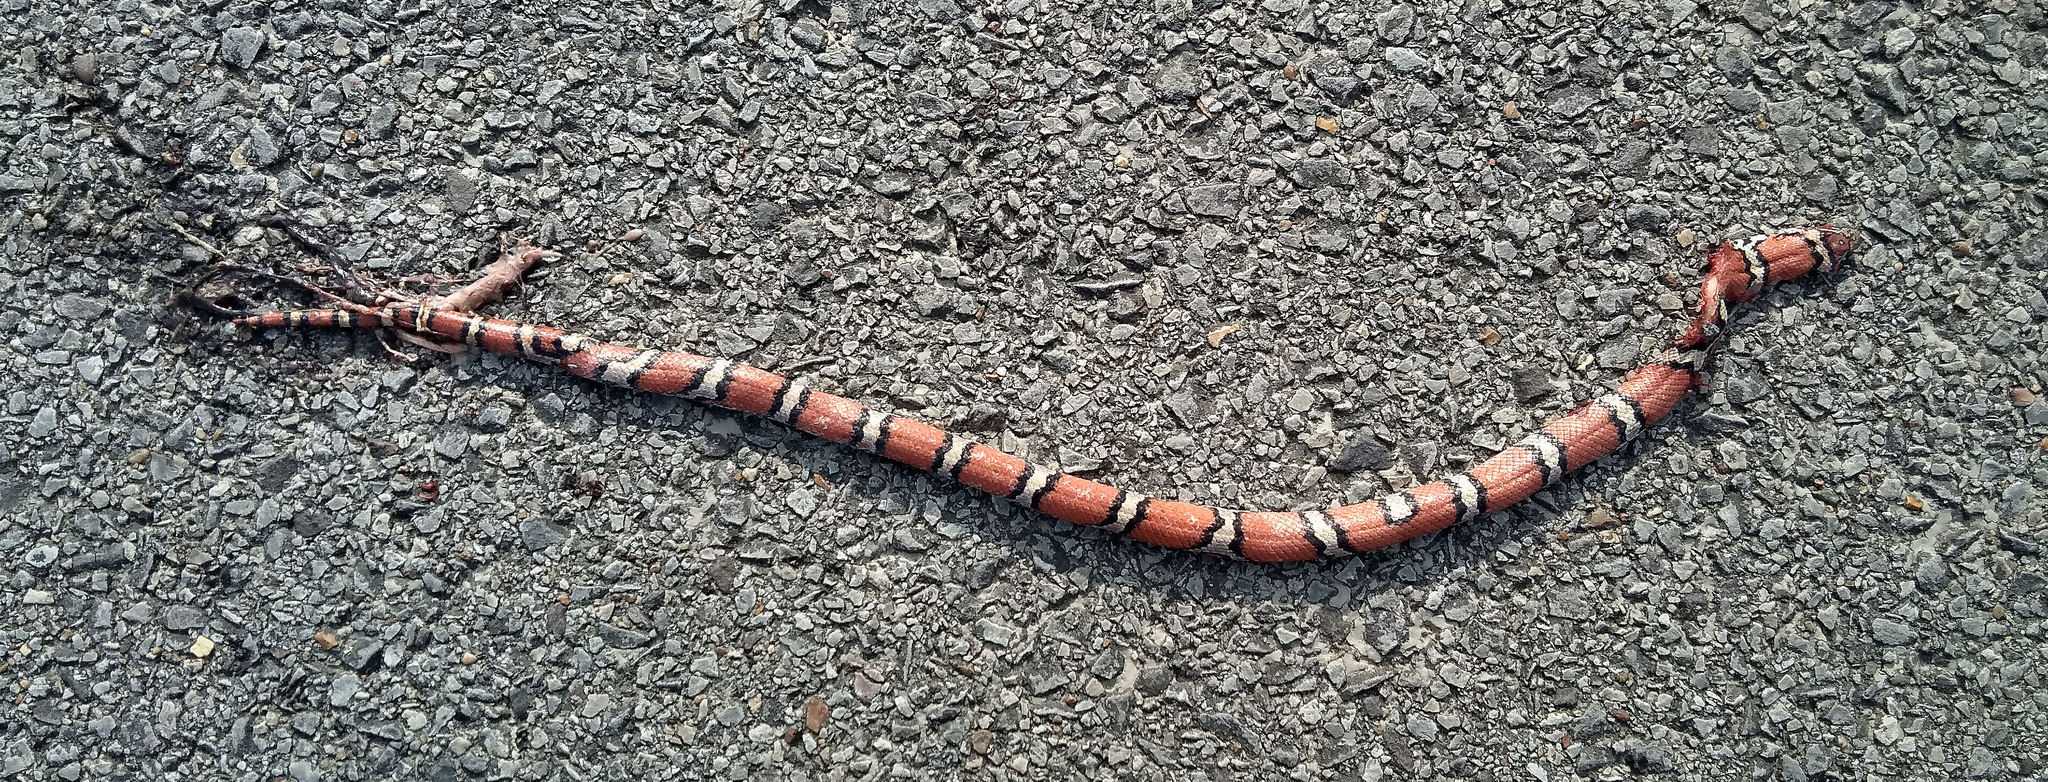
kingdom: Animalia
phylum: Chordata
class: Squamata
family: Colubridae
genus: Lampropeltis
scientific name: Lampropeltis triangulum
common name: Eastern milksnake
